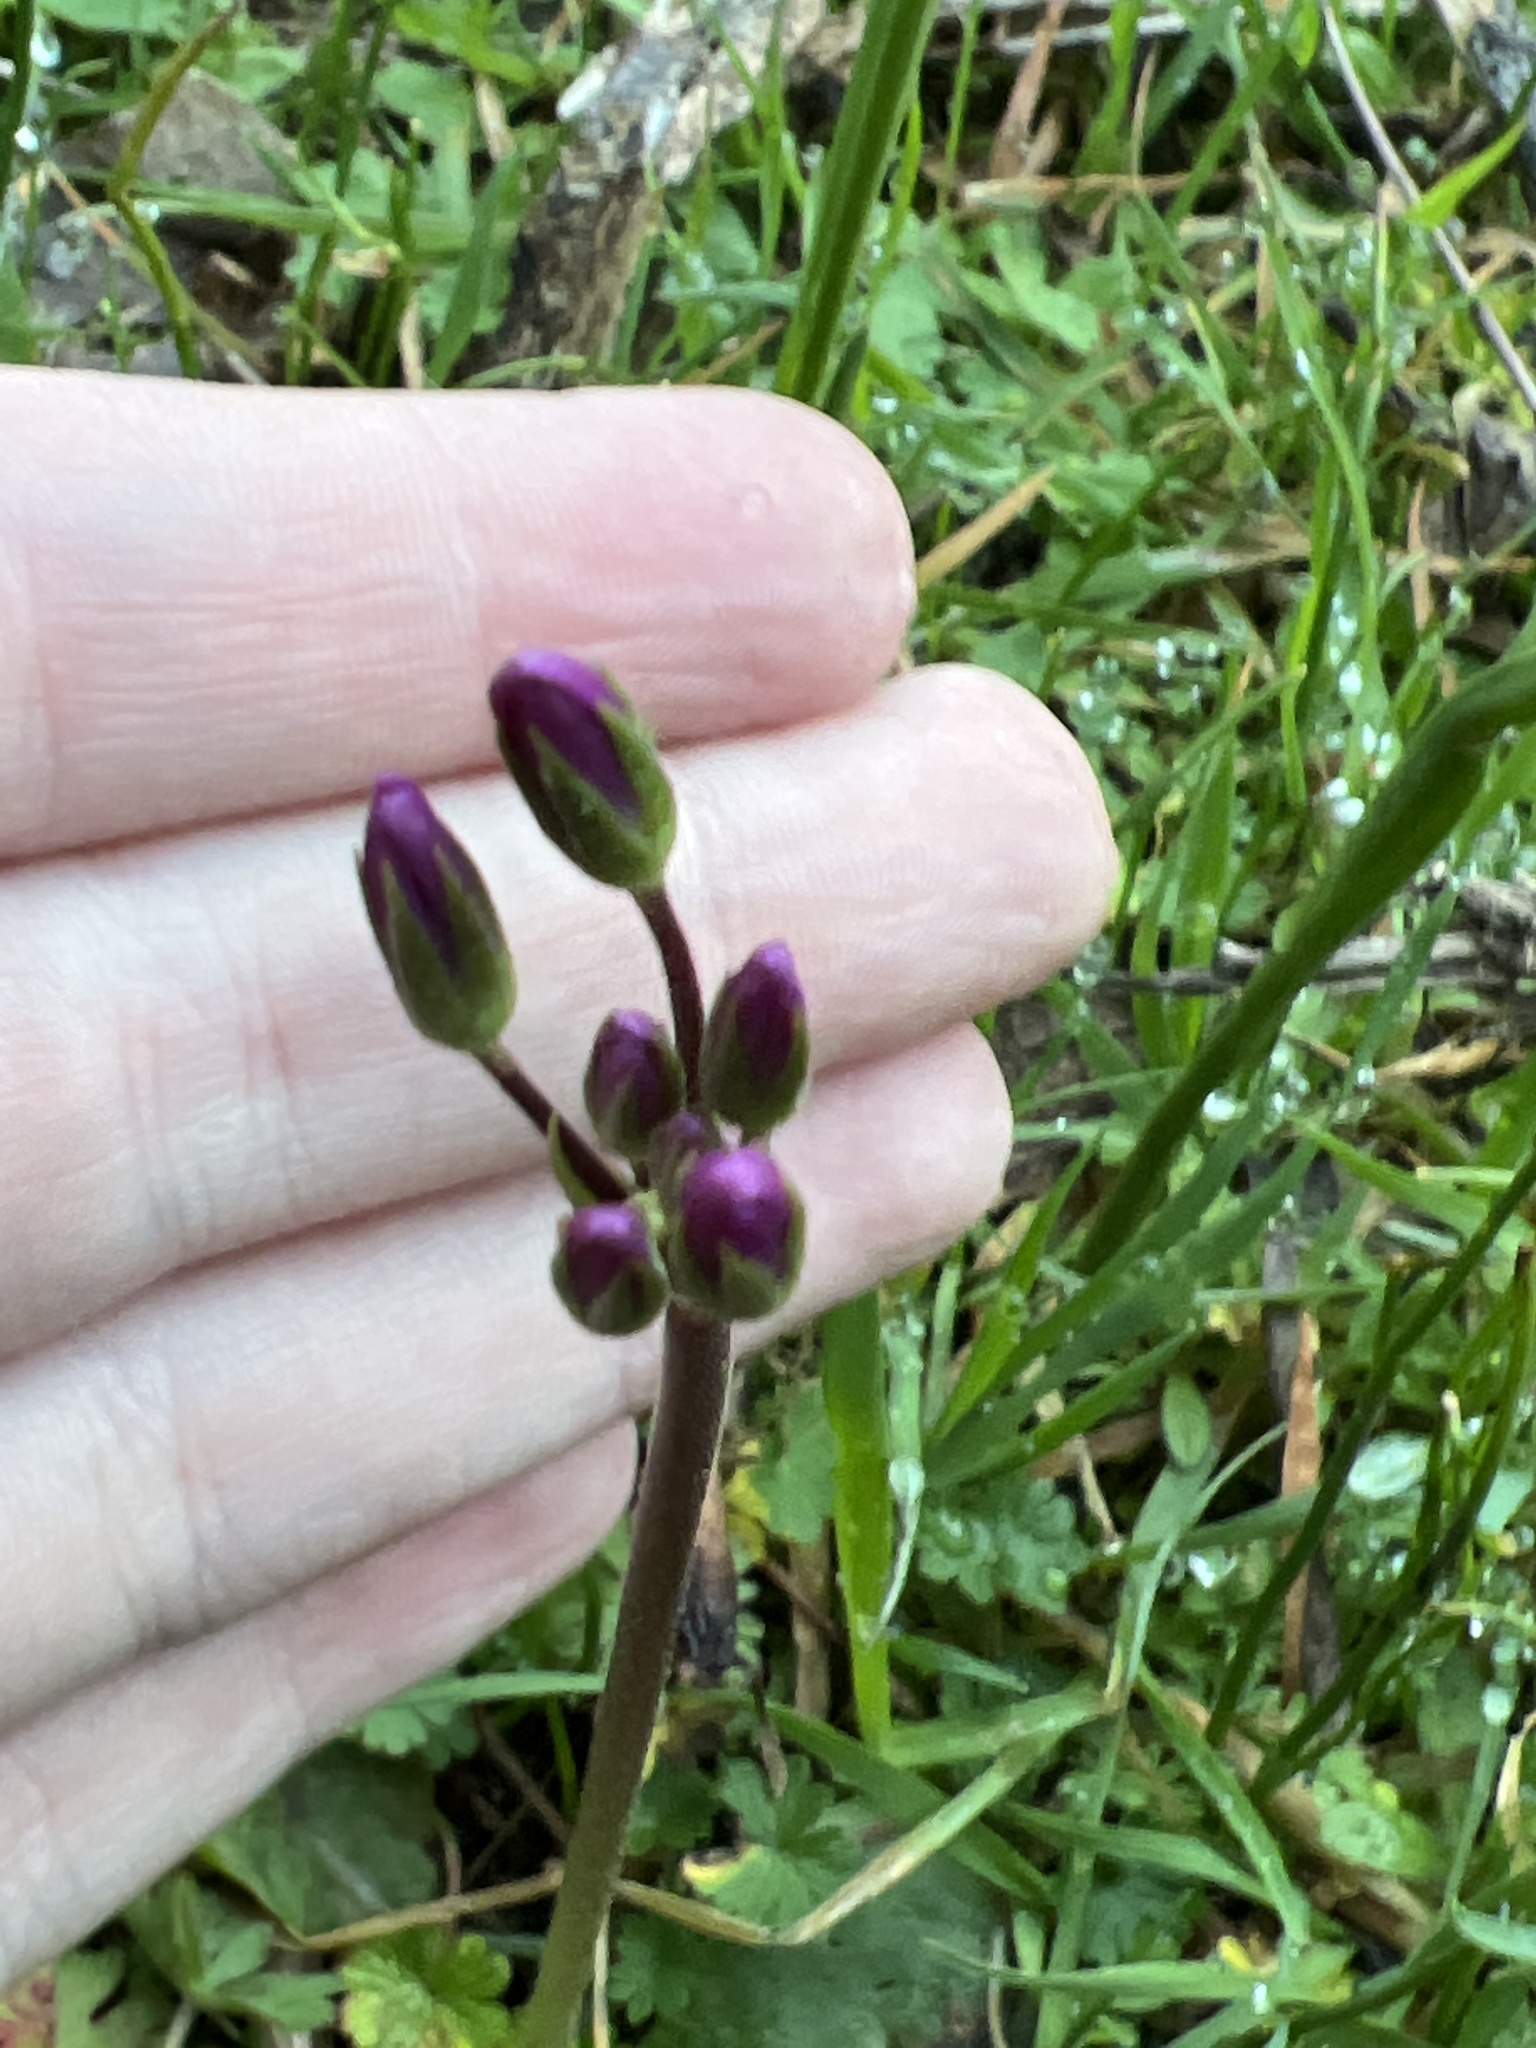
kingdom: Plantae
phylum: Tracheophyta
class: Magnoliopsida
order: Ericales
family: Primulaceae
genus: Dodecatheon
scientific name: Dodecatheon hendersonii
